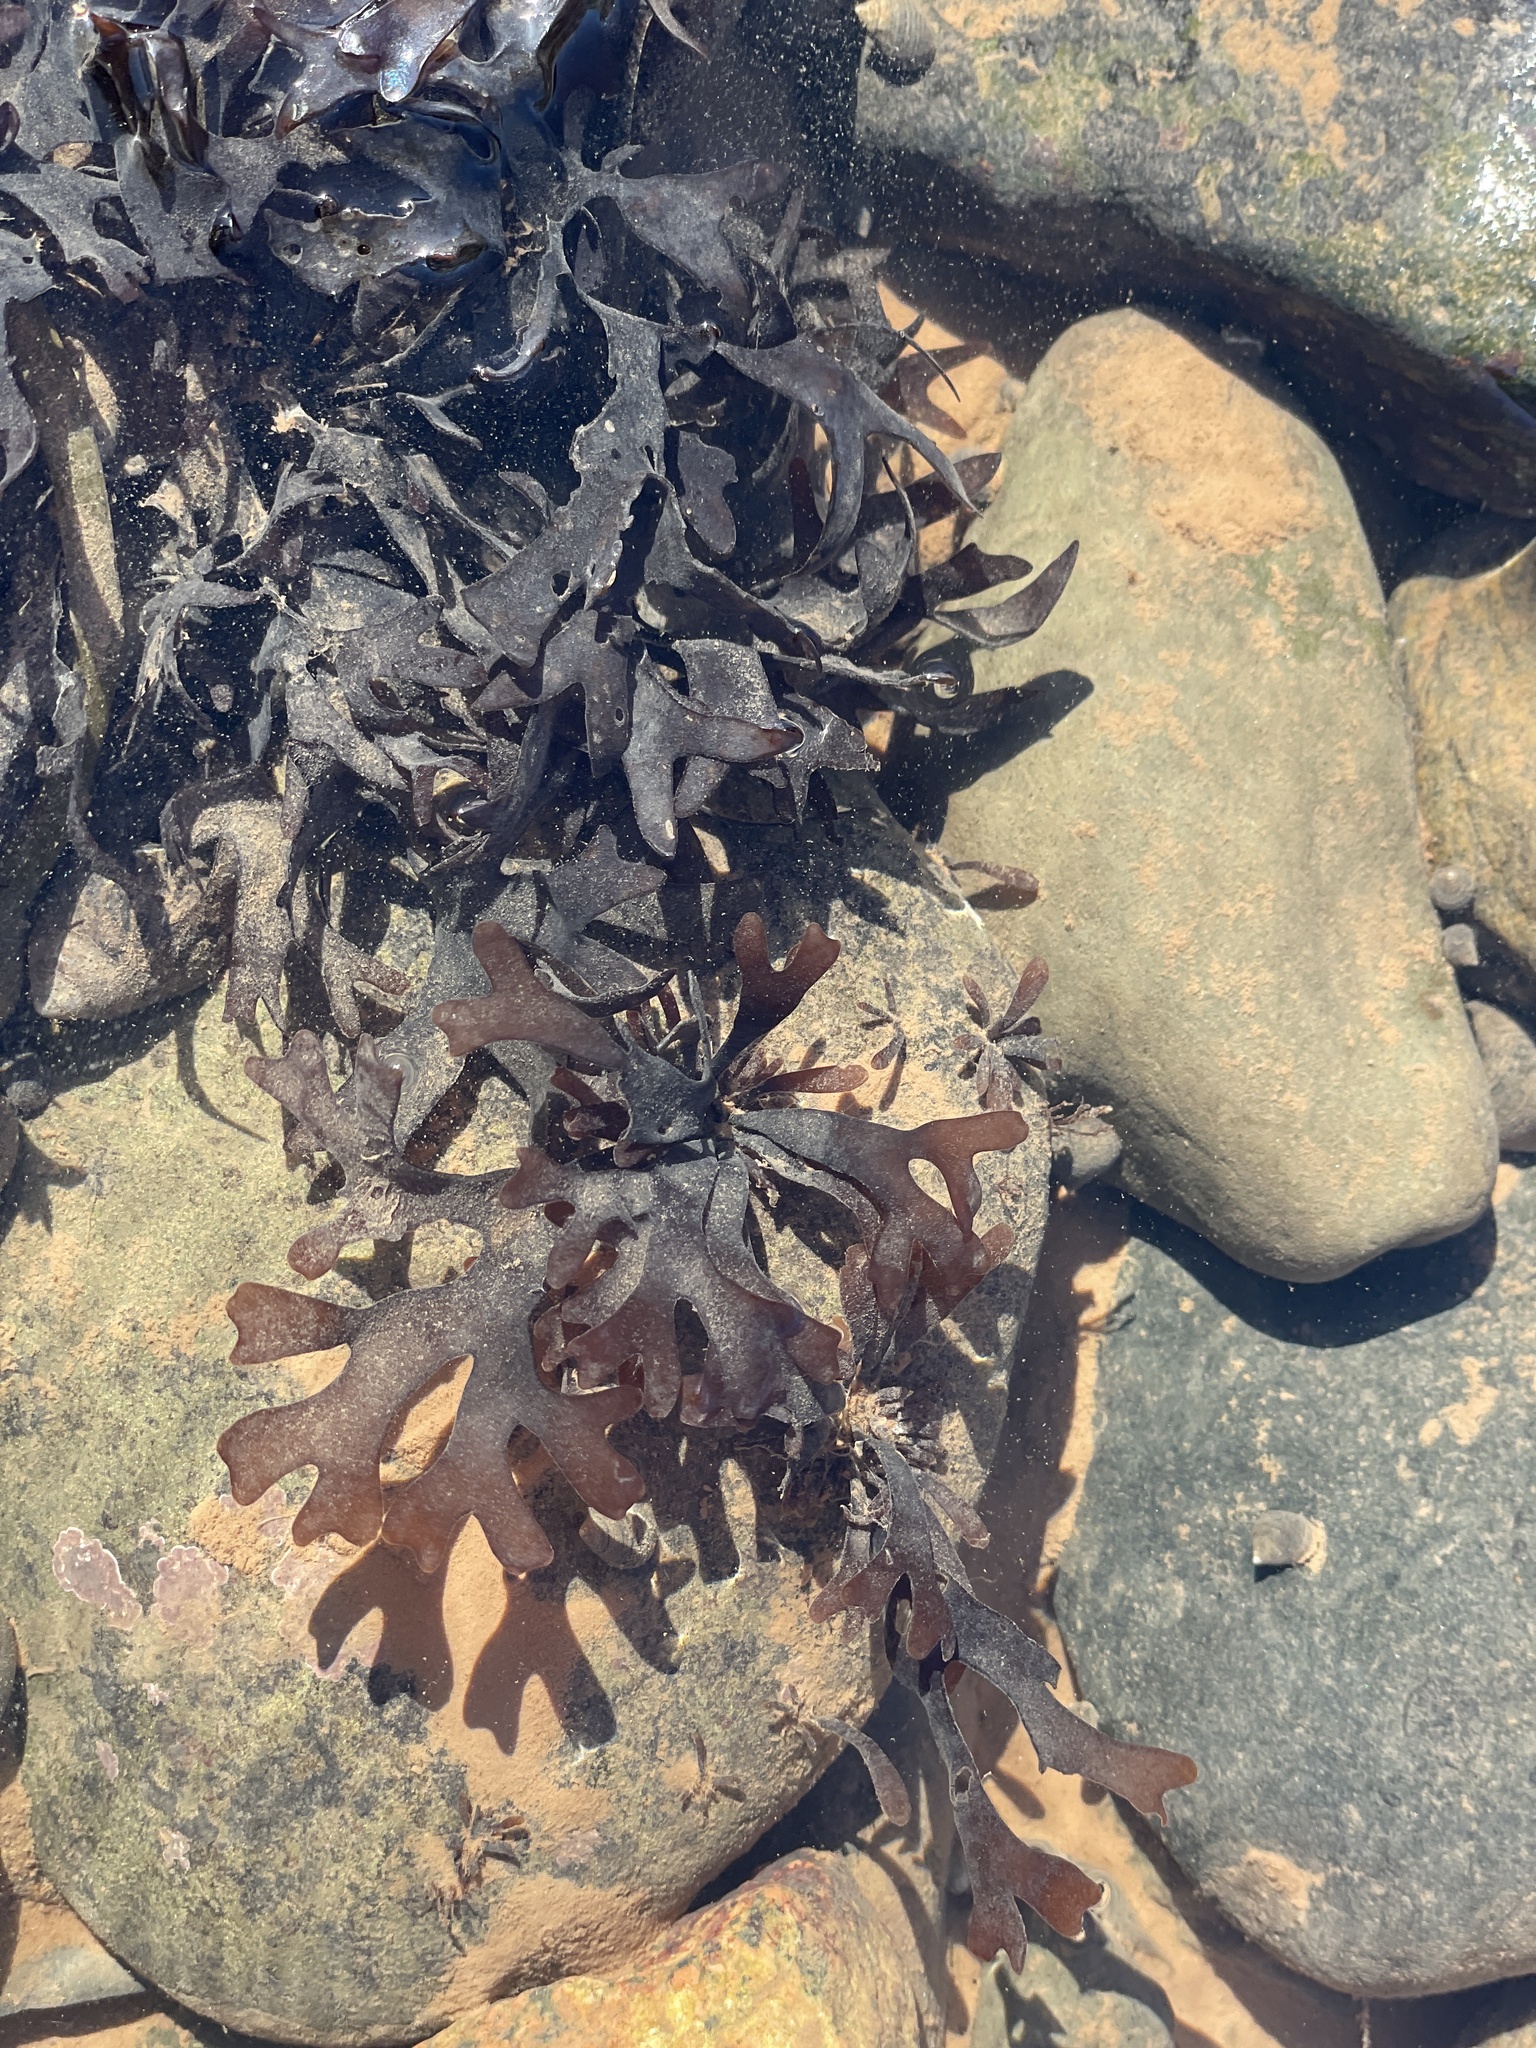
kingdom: Plantae
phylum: Rhodophyta
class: Florideophyceae
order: Gigartinales
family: Gigartinaceae
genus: Chondrus
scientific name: Chondrus crispus
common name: Carrageen
